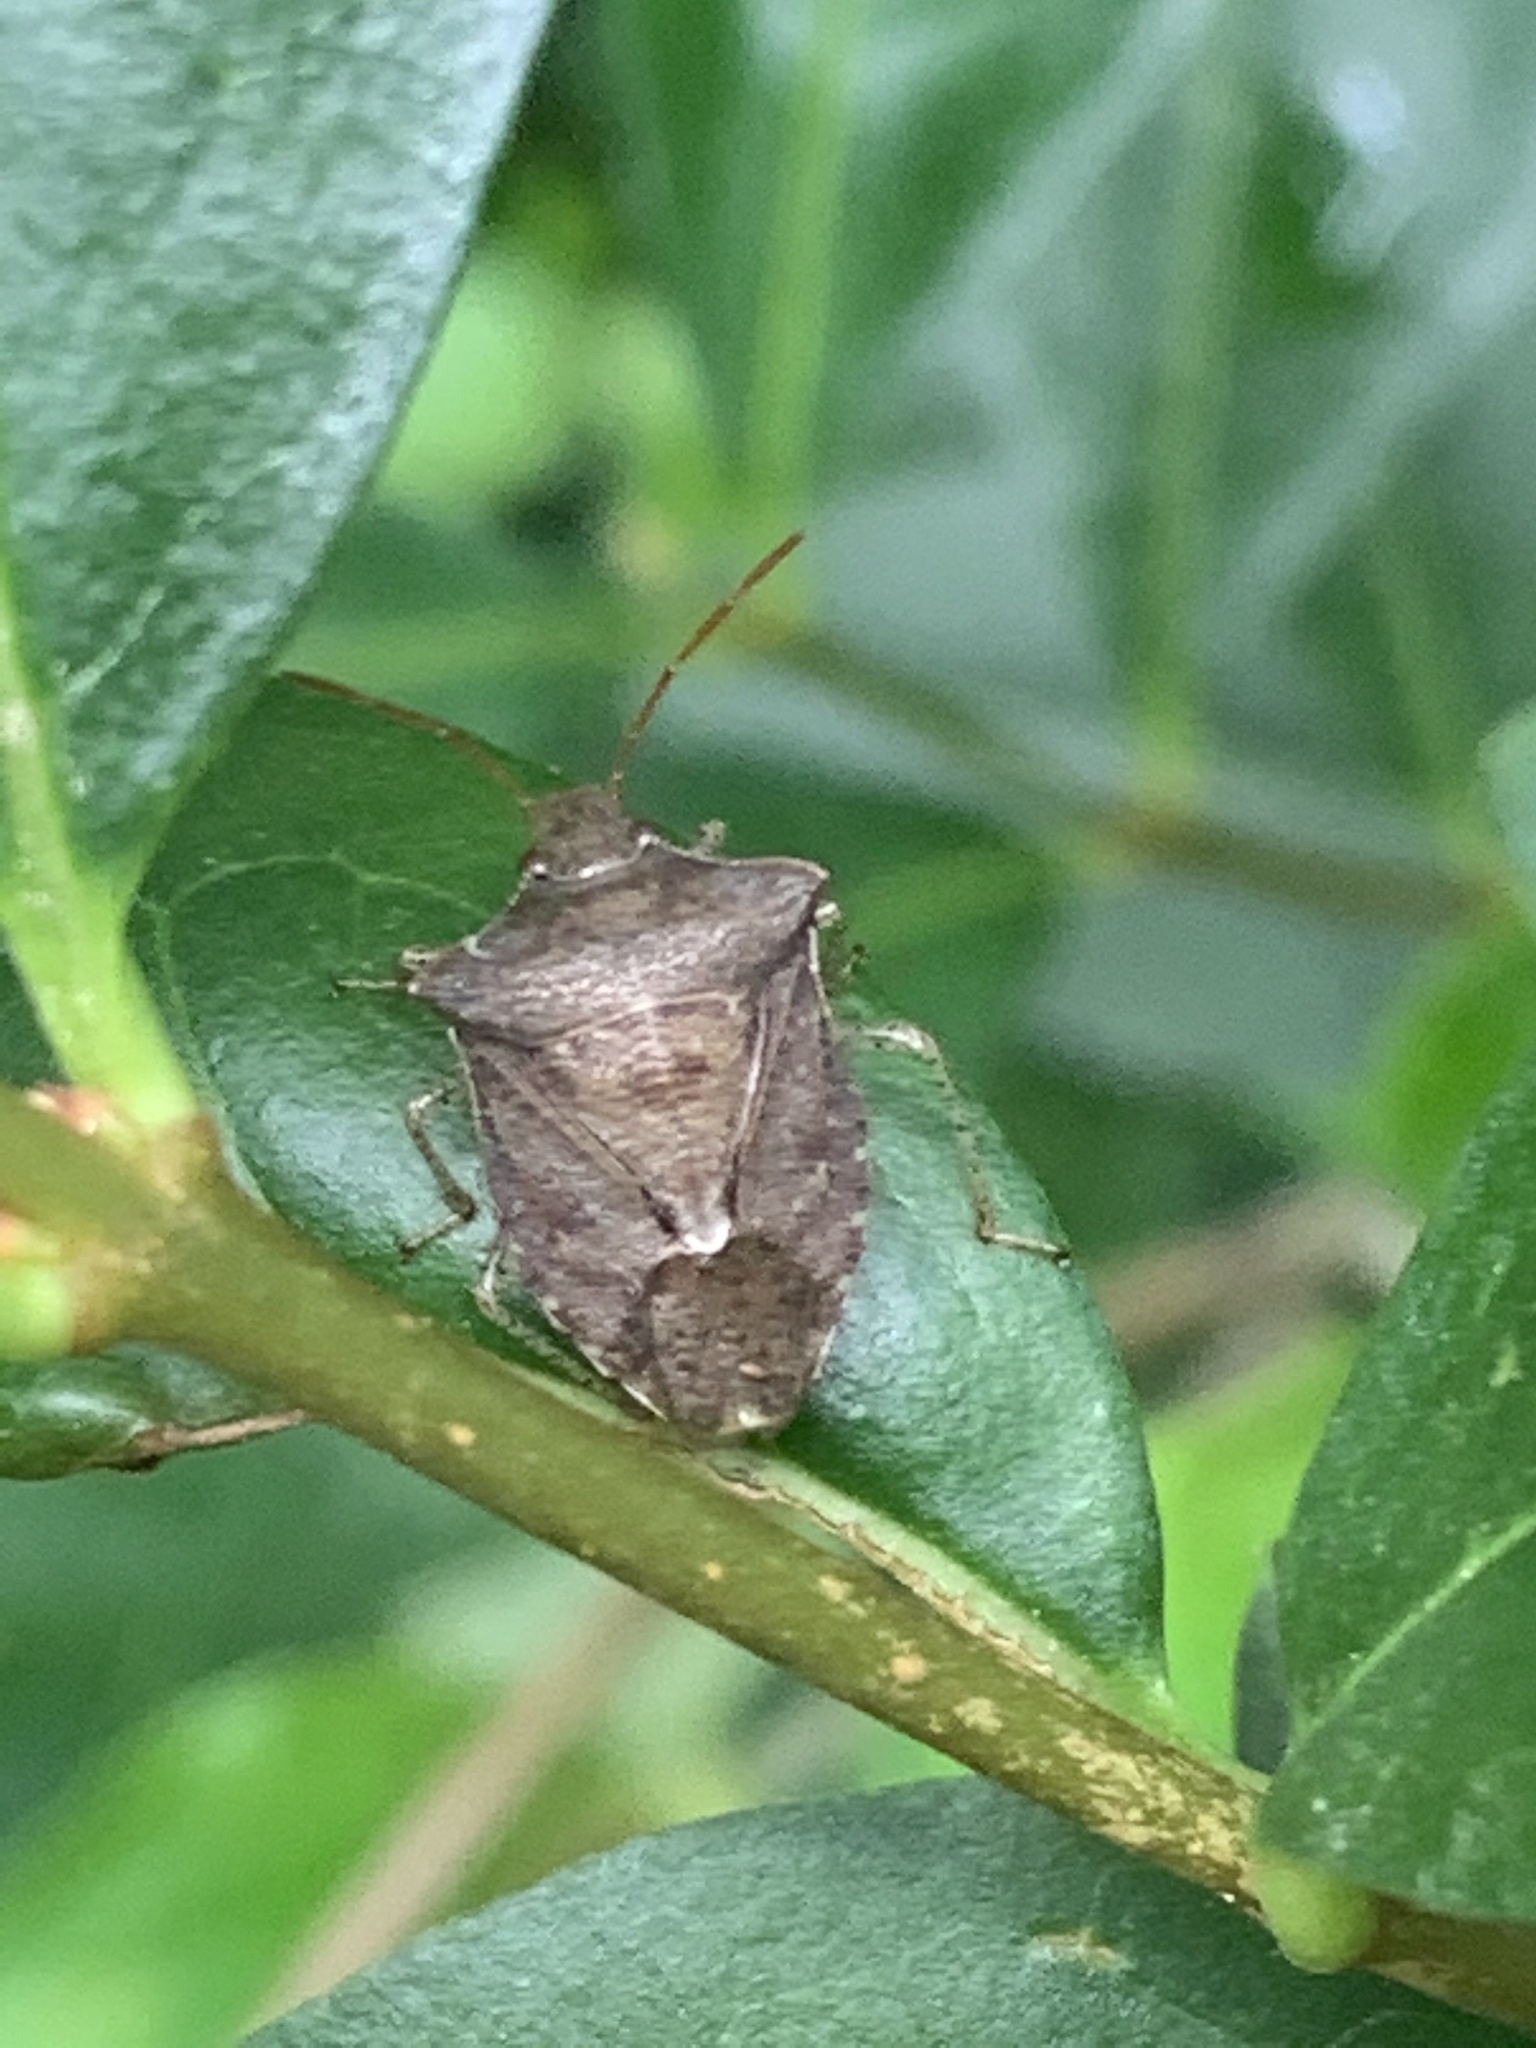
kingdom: Animalia
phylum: Arthropoda
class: Insecta
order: Hemiptera
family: Pentatomidae
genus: Euschistus
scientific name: Euschistus
